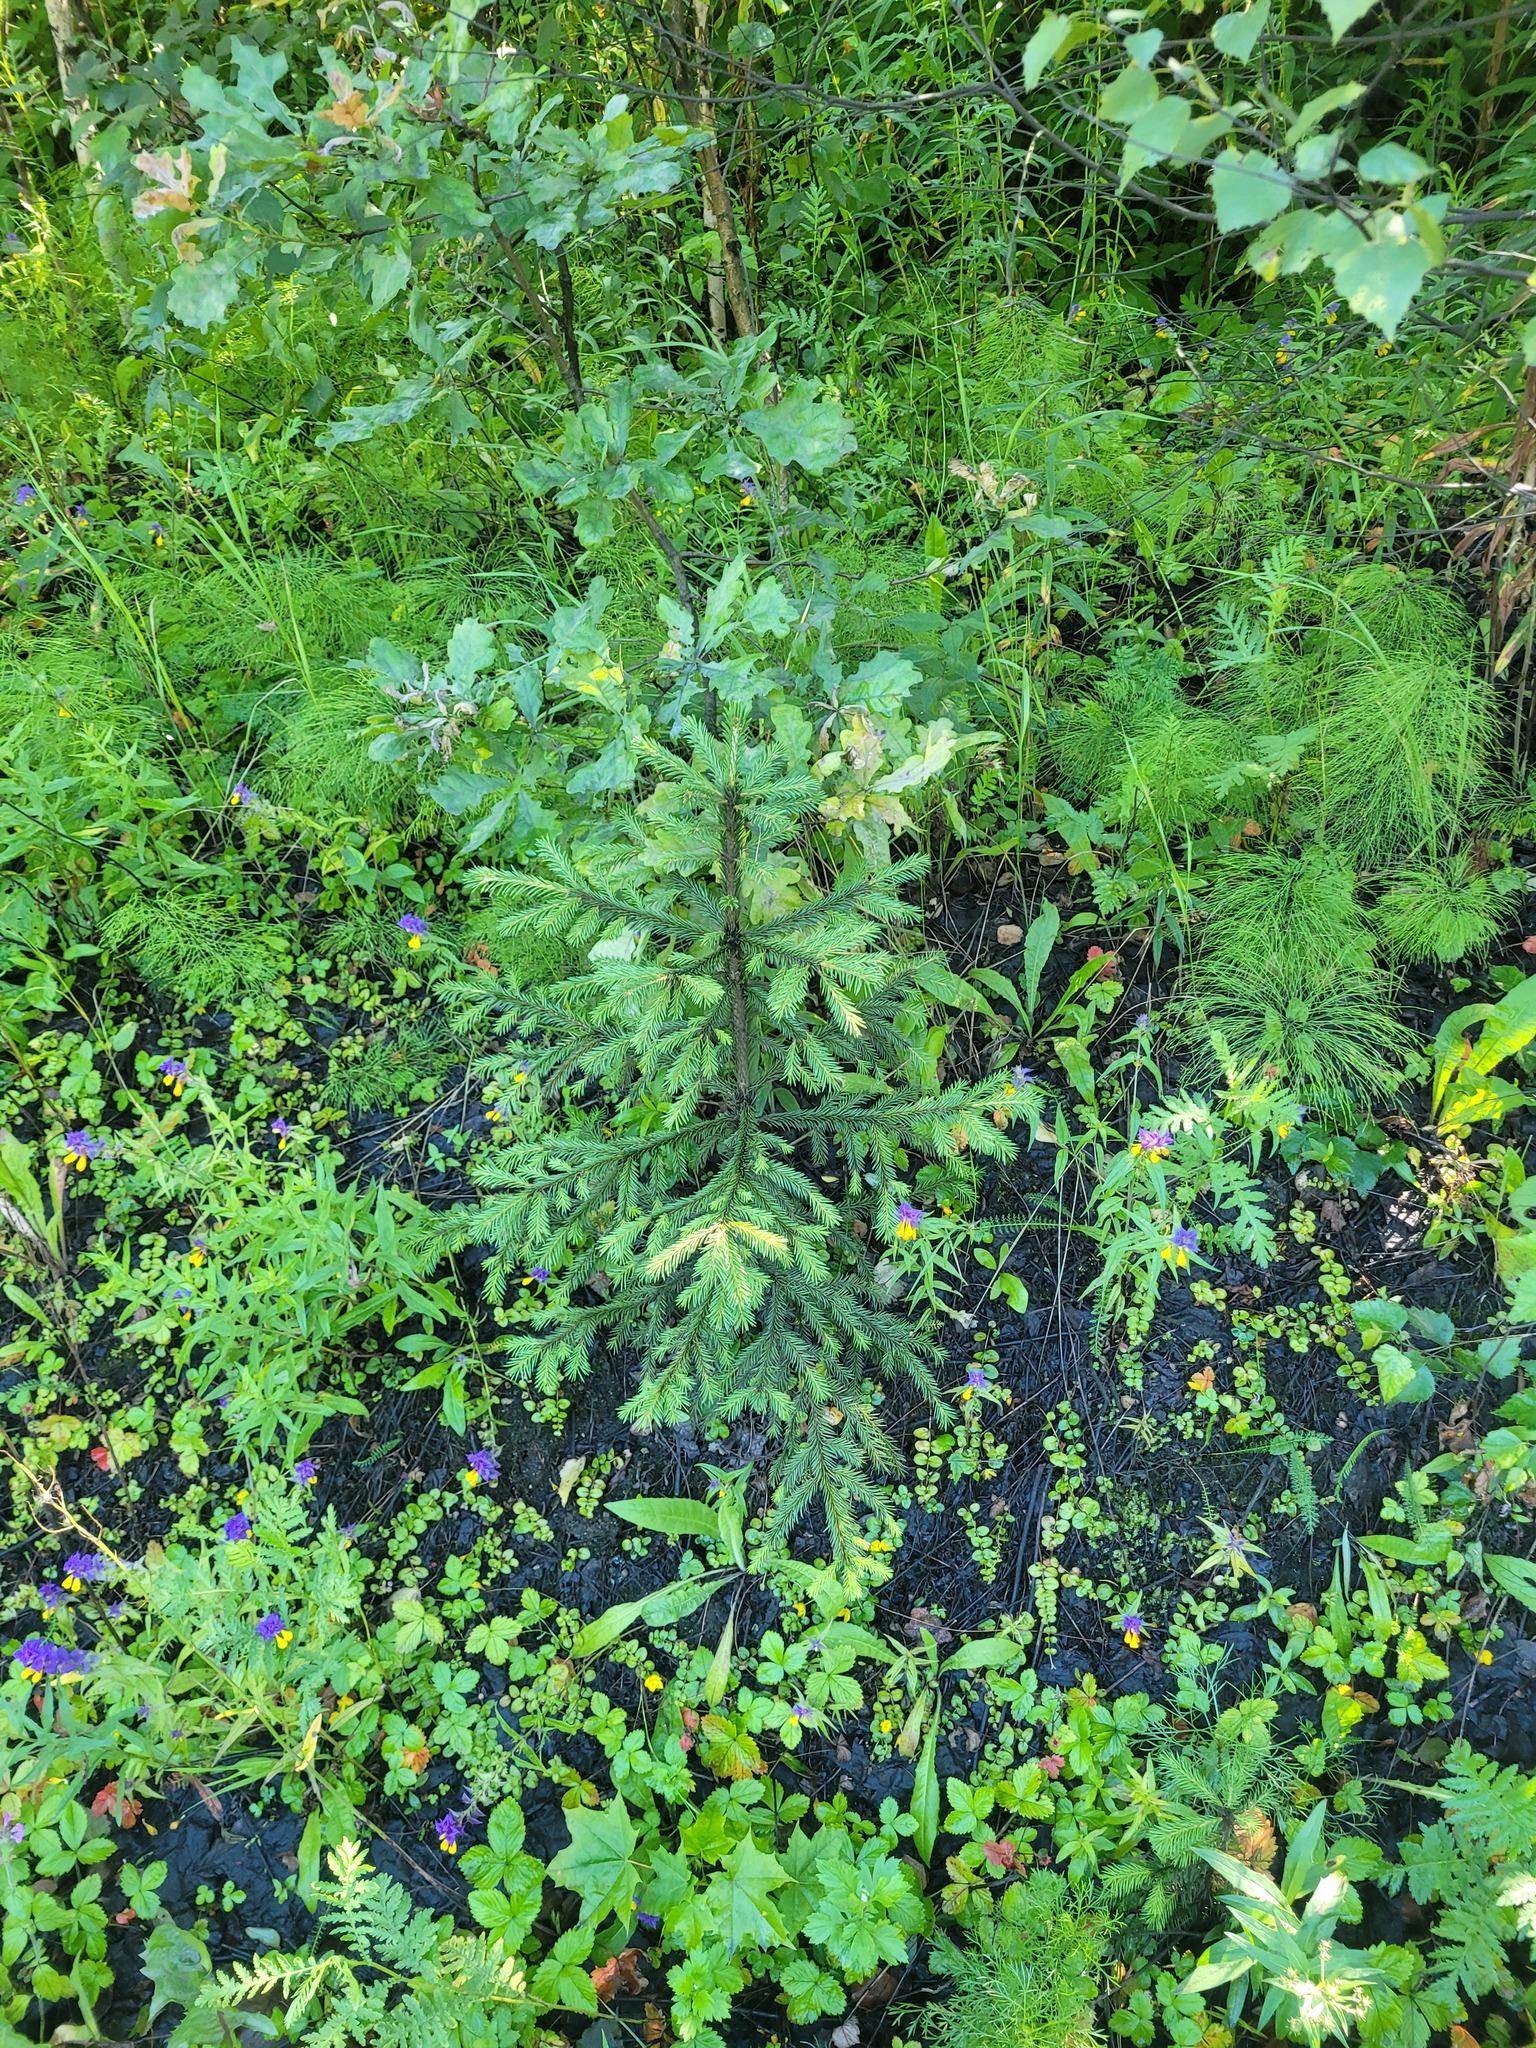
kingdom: Plantae
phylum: Tracheophyta
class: Pinopsida
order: Pinales
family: Pinaceae
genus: Picea
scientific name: Picea abies
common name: Norway spruce
